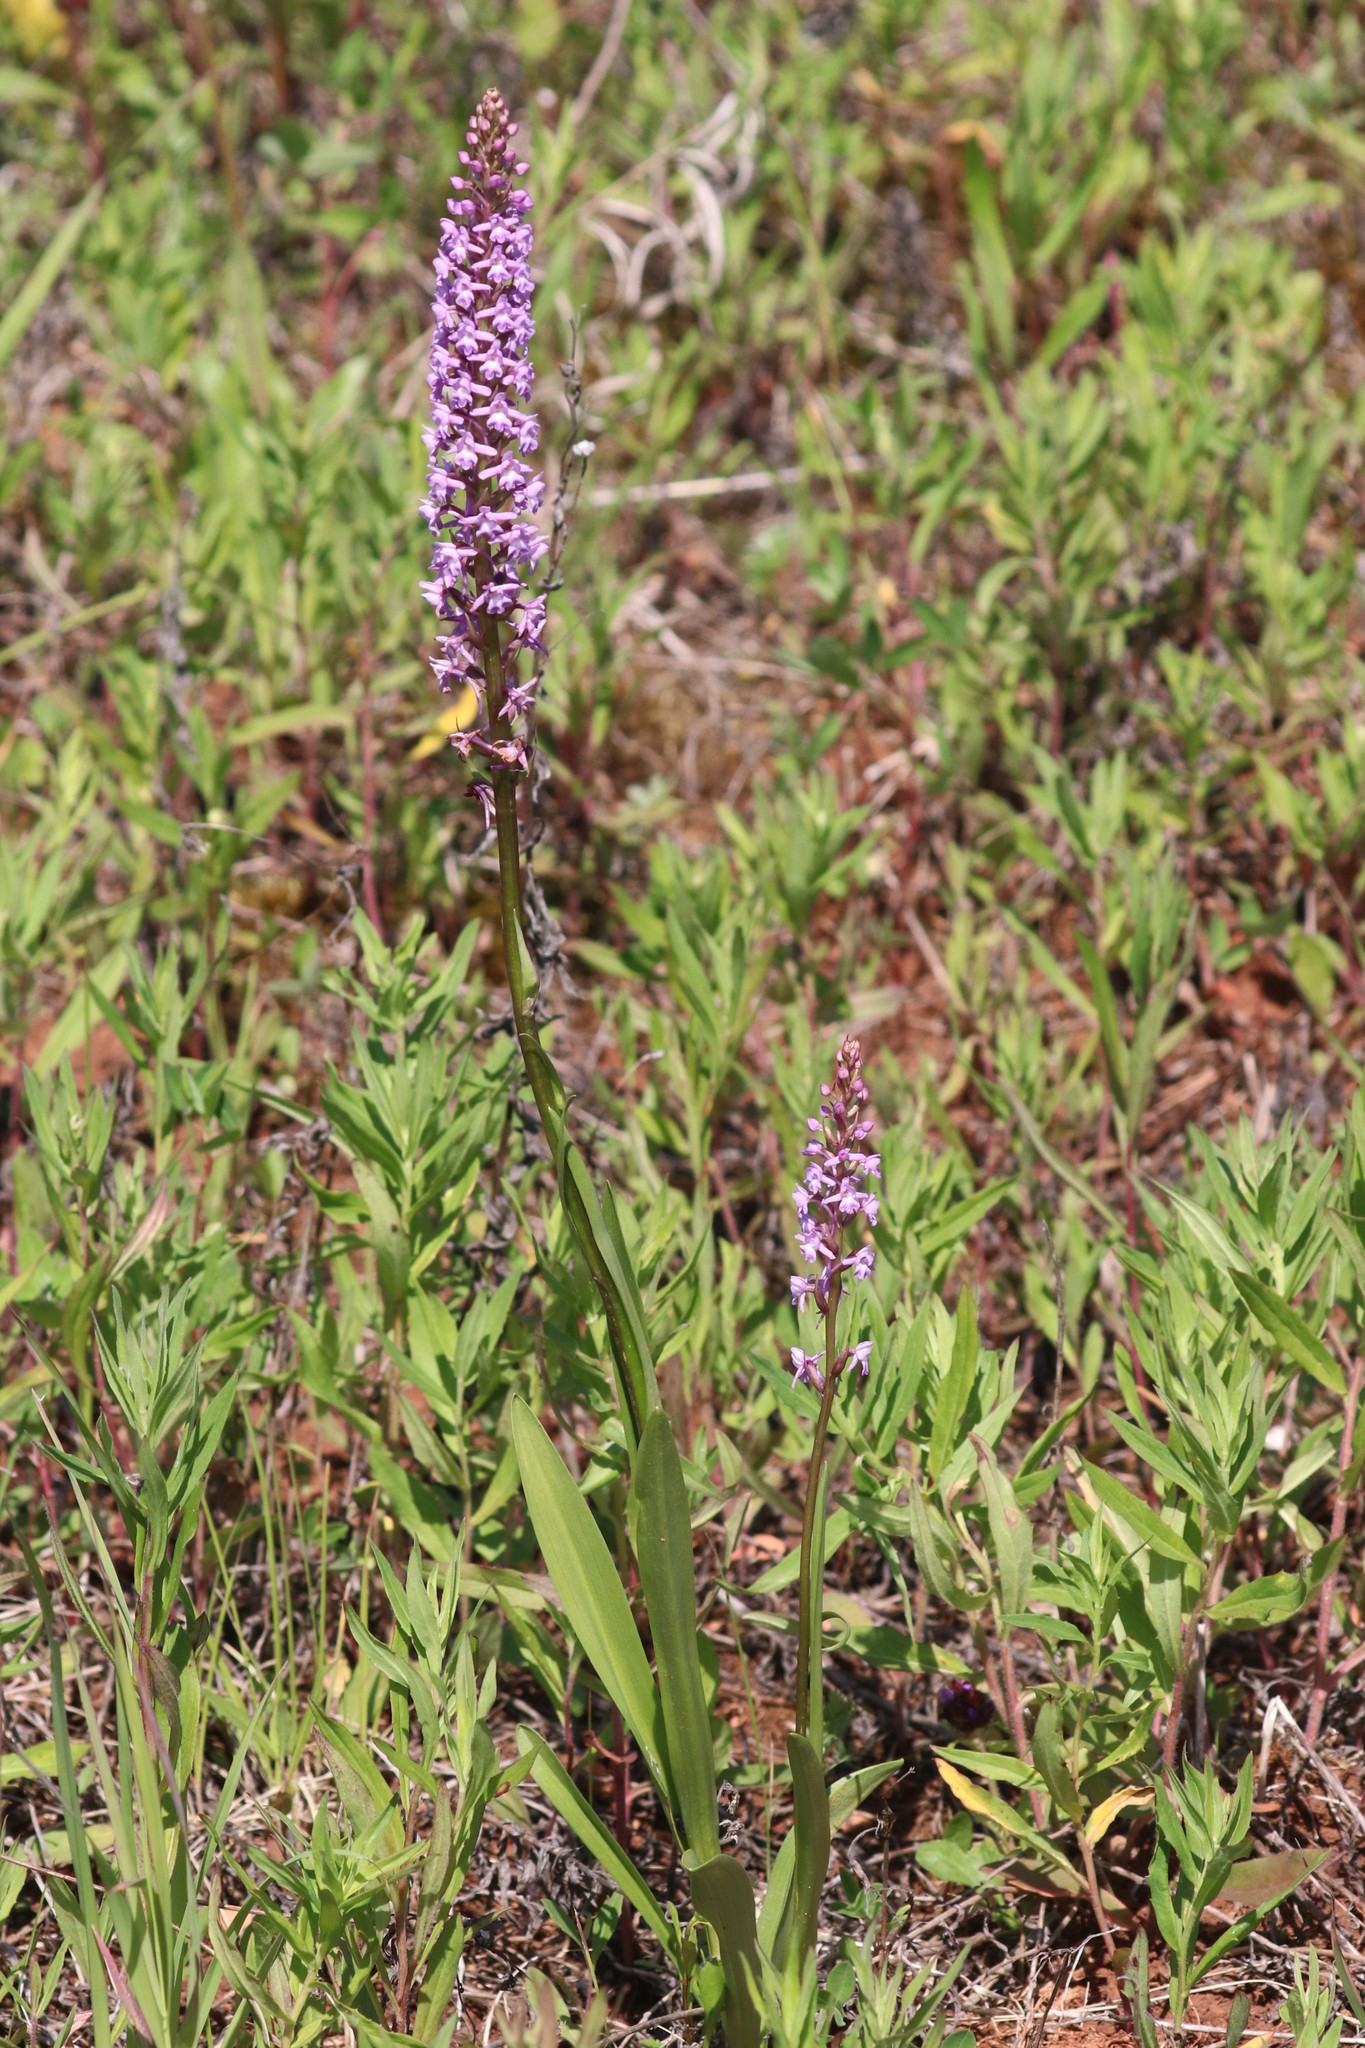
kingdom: Plantae
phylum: Tracheophyta
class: Liliopsida
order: Asparagales
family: Orchidaceae
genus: Gymnadenia
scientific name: Gymnadenia conopsea
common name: Fragrant orchid
